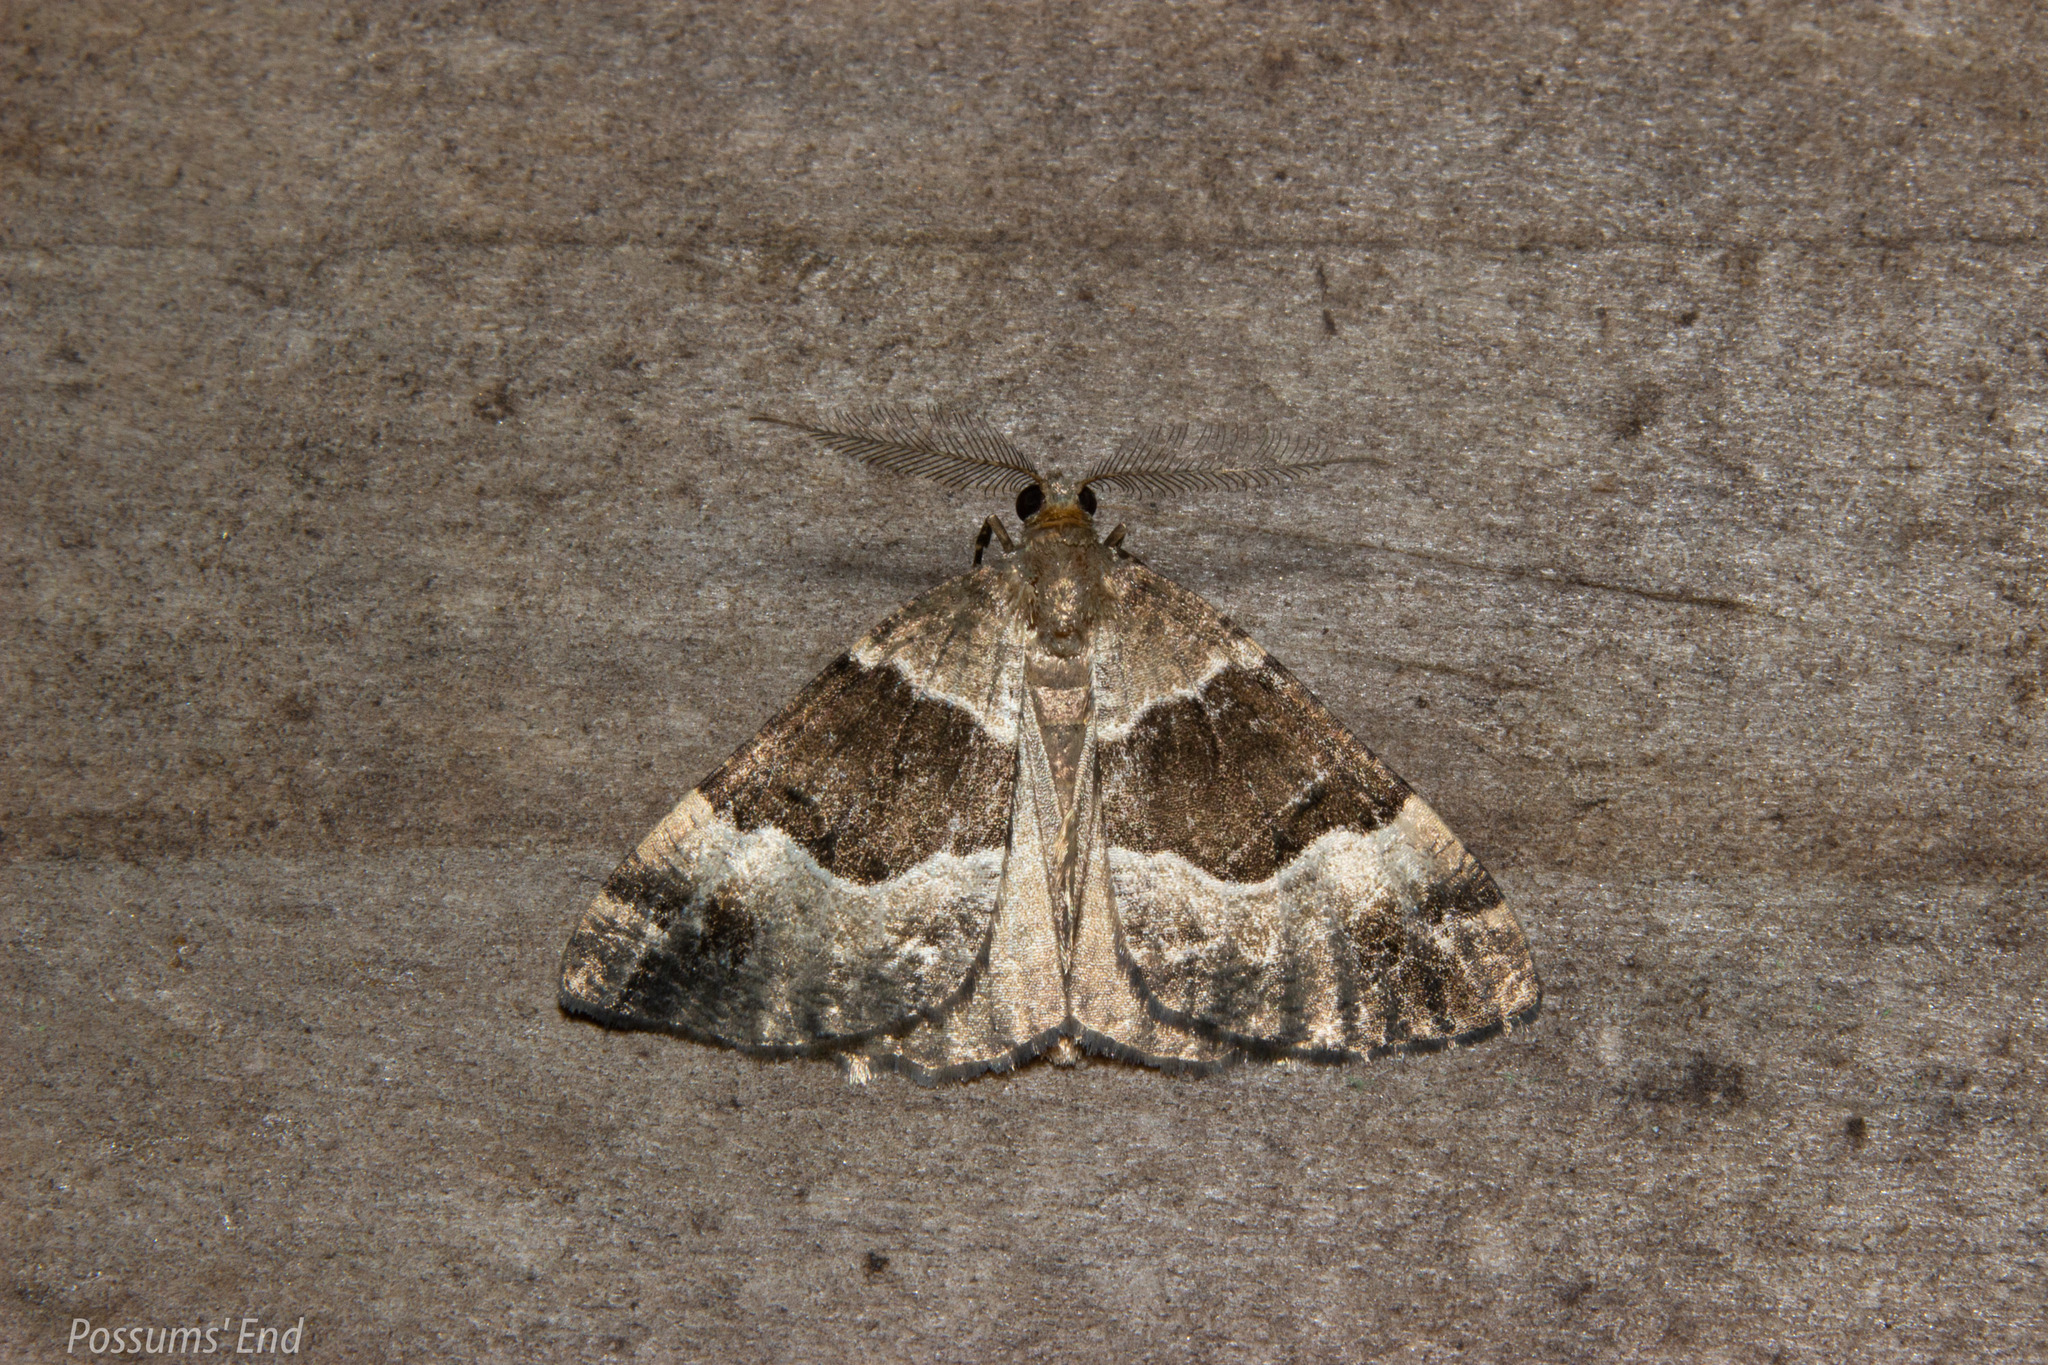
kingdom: Animalia
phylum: Arthropoda
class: Insecta
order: Lepidoptera
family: Geometridae
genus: Pseudocoremia
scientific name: Pseudocoremia
